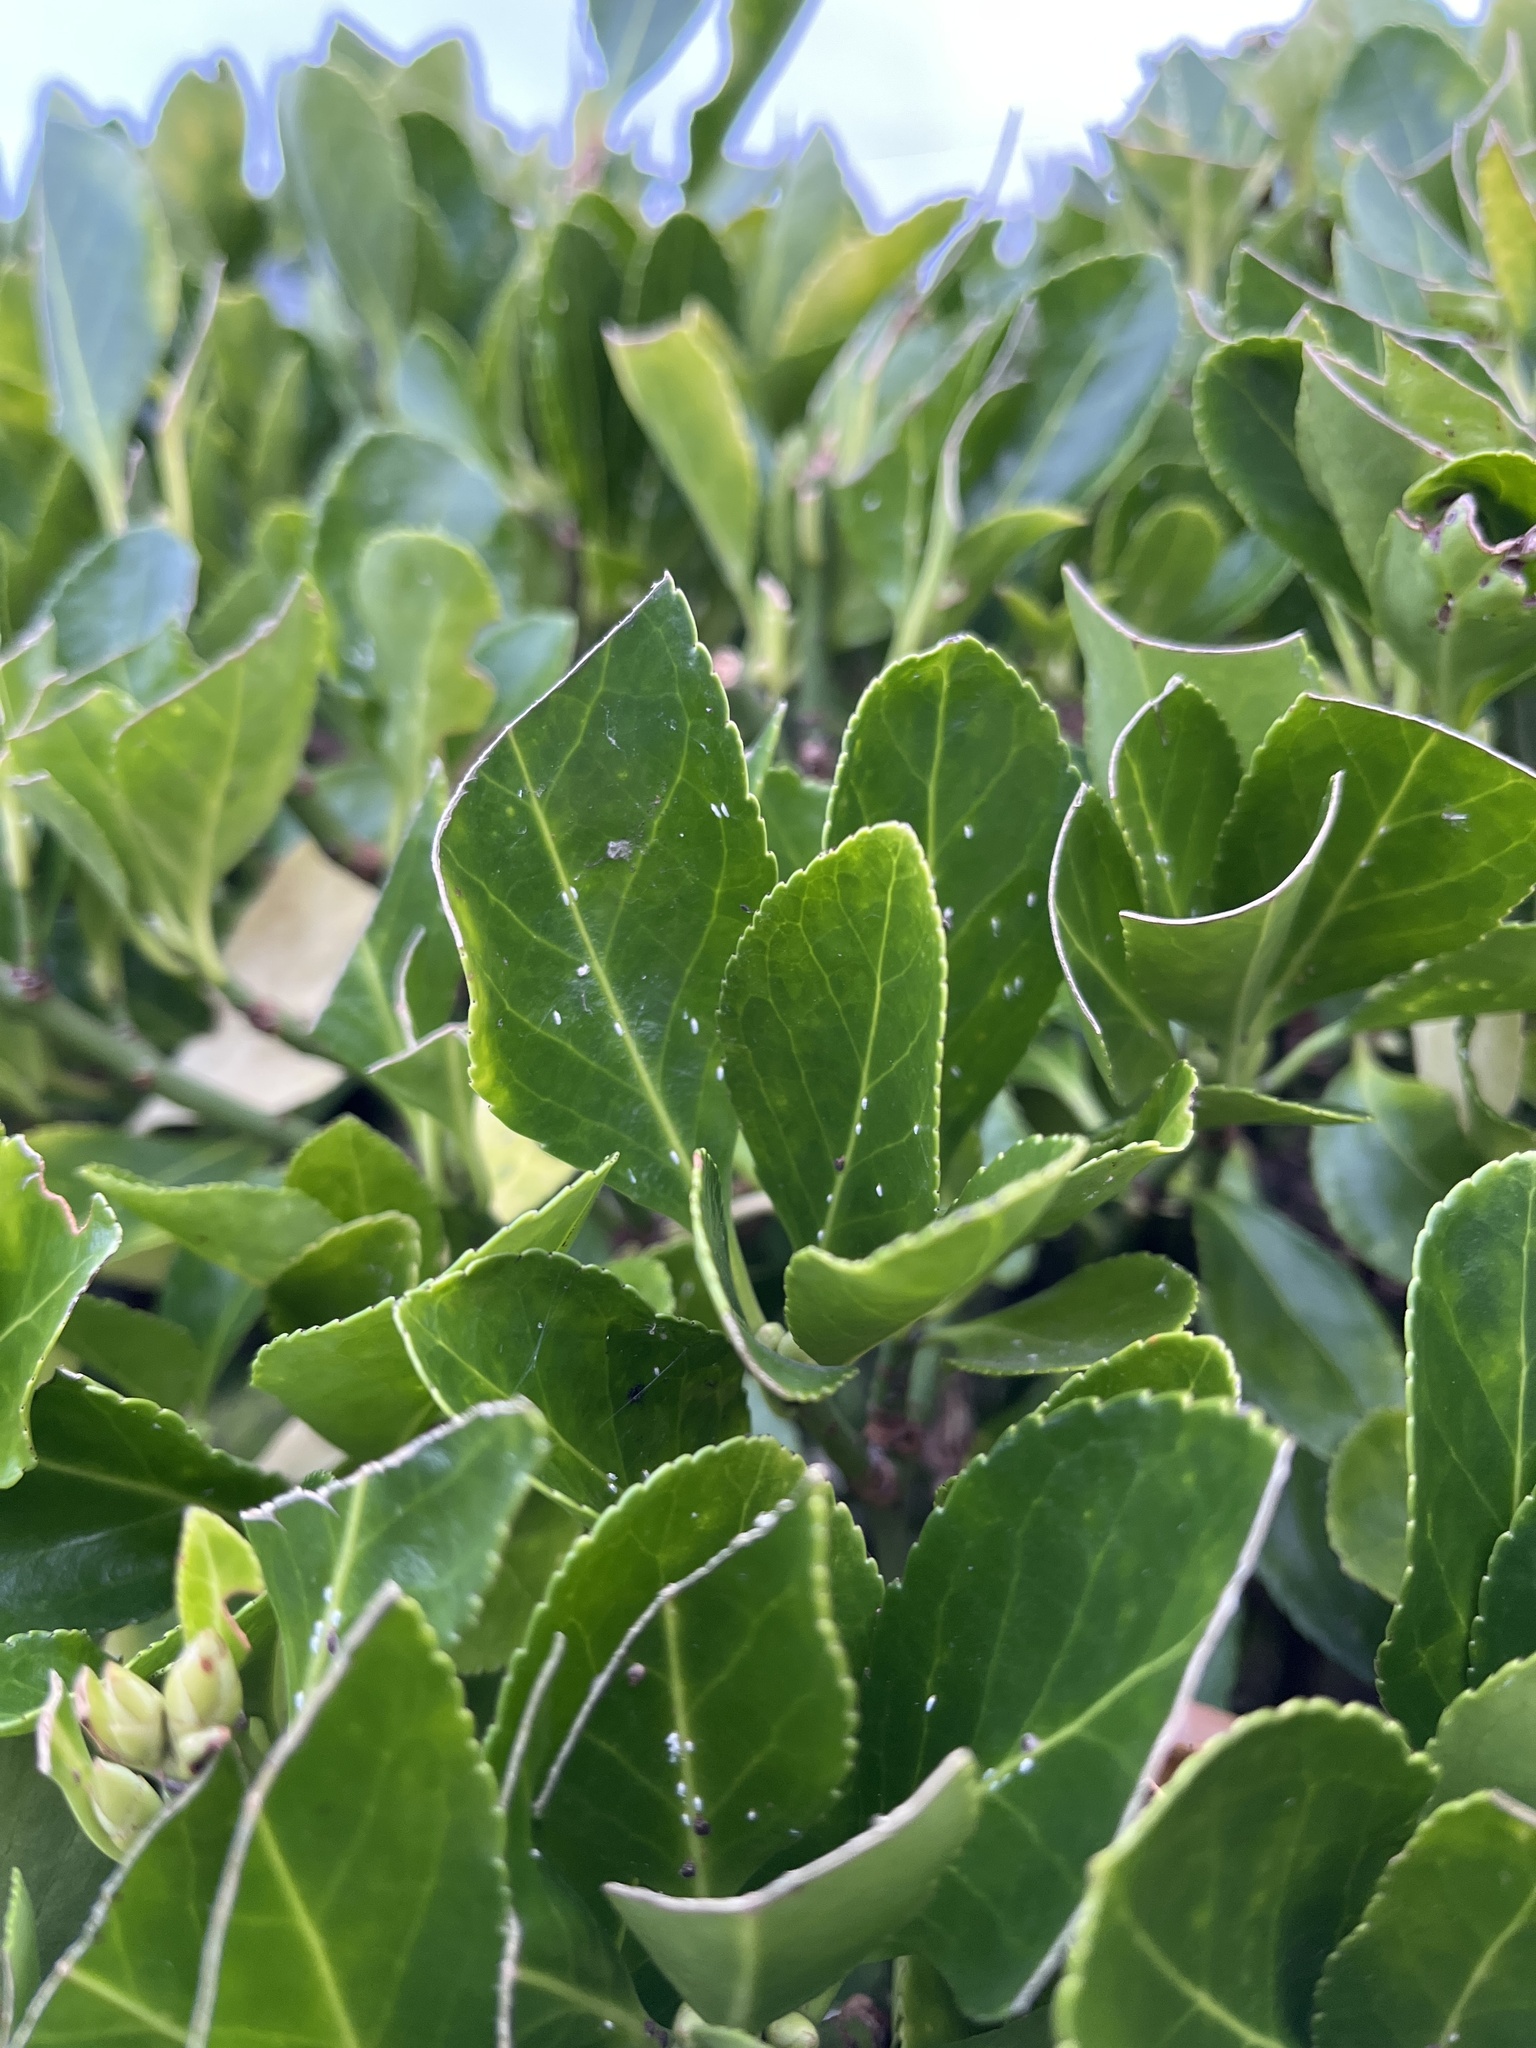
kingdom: Animalia
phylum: Arthropoda
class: Insecta
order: Hemiptera
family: Diaspididae
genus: Unaspis
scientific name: Unaspis euonymi
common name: Euonymus scale
